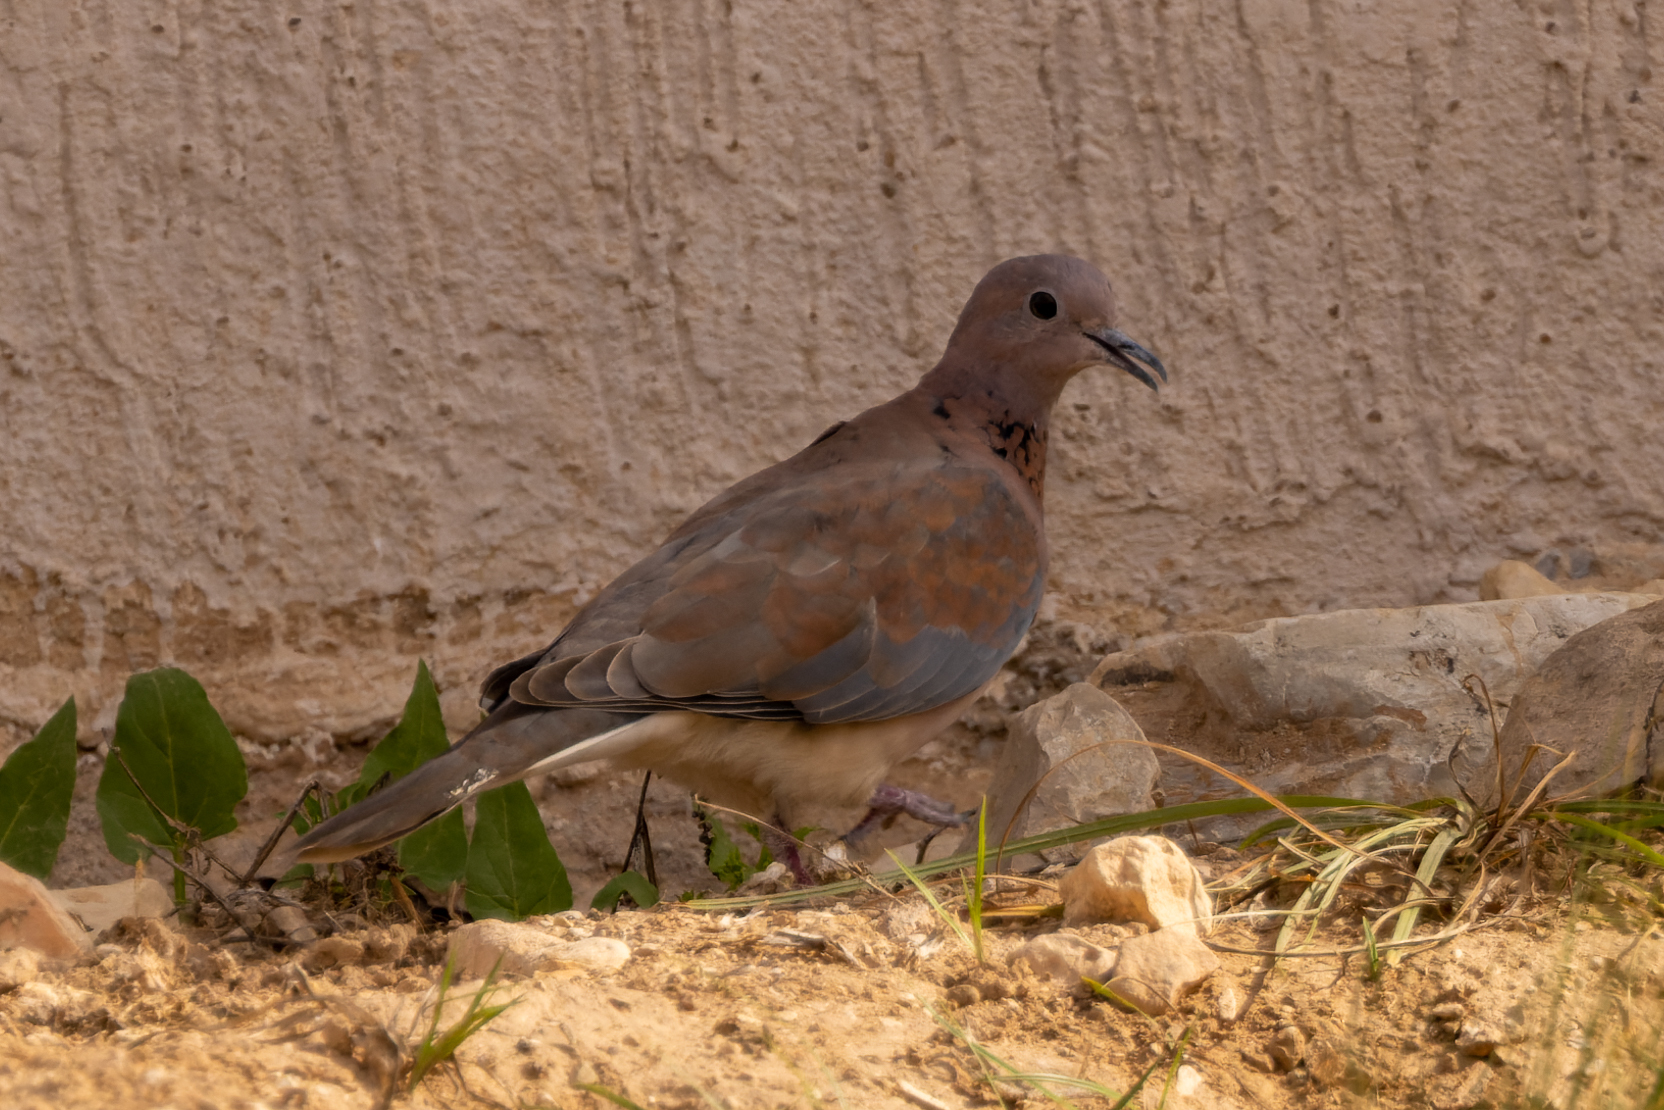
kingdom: Animalia
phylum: Chordata
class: Aves
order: Columbiformes
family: Columbidae
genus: Spilopelia
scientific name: Spilopelia senegalensis
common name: Laughing dove
